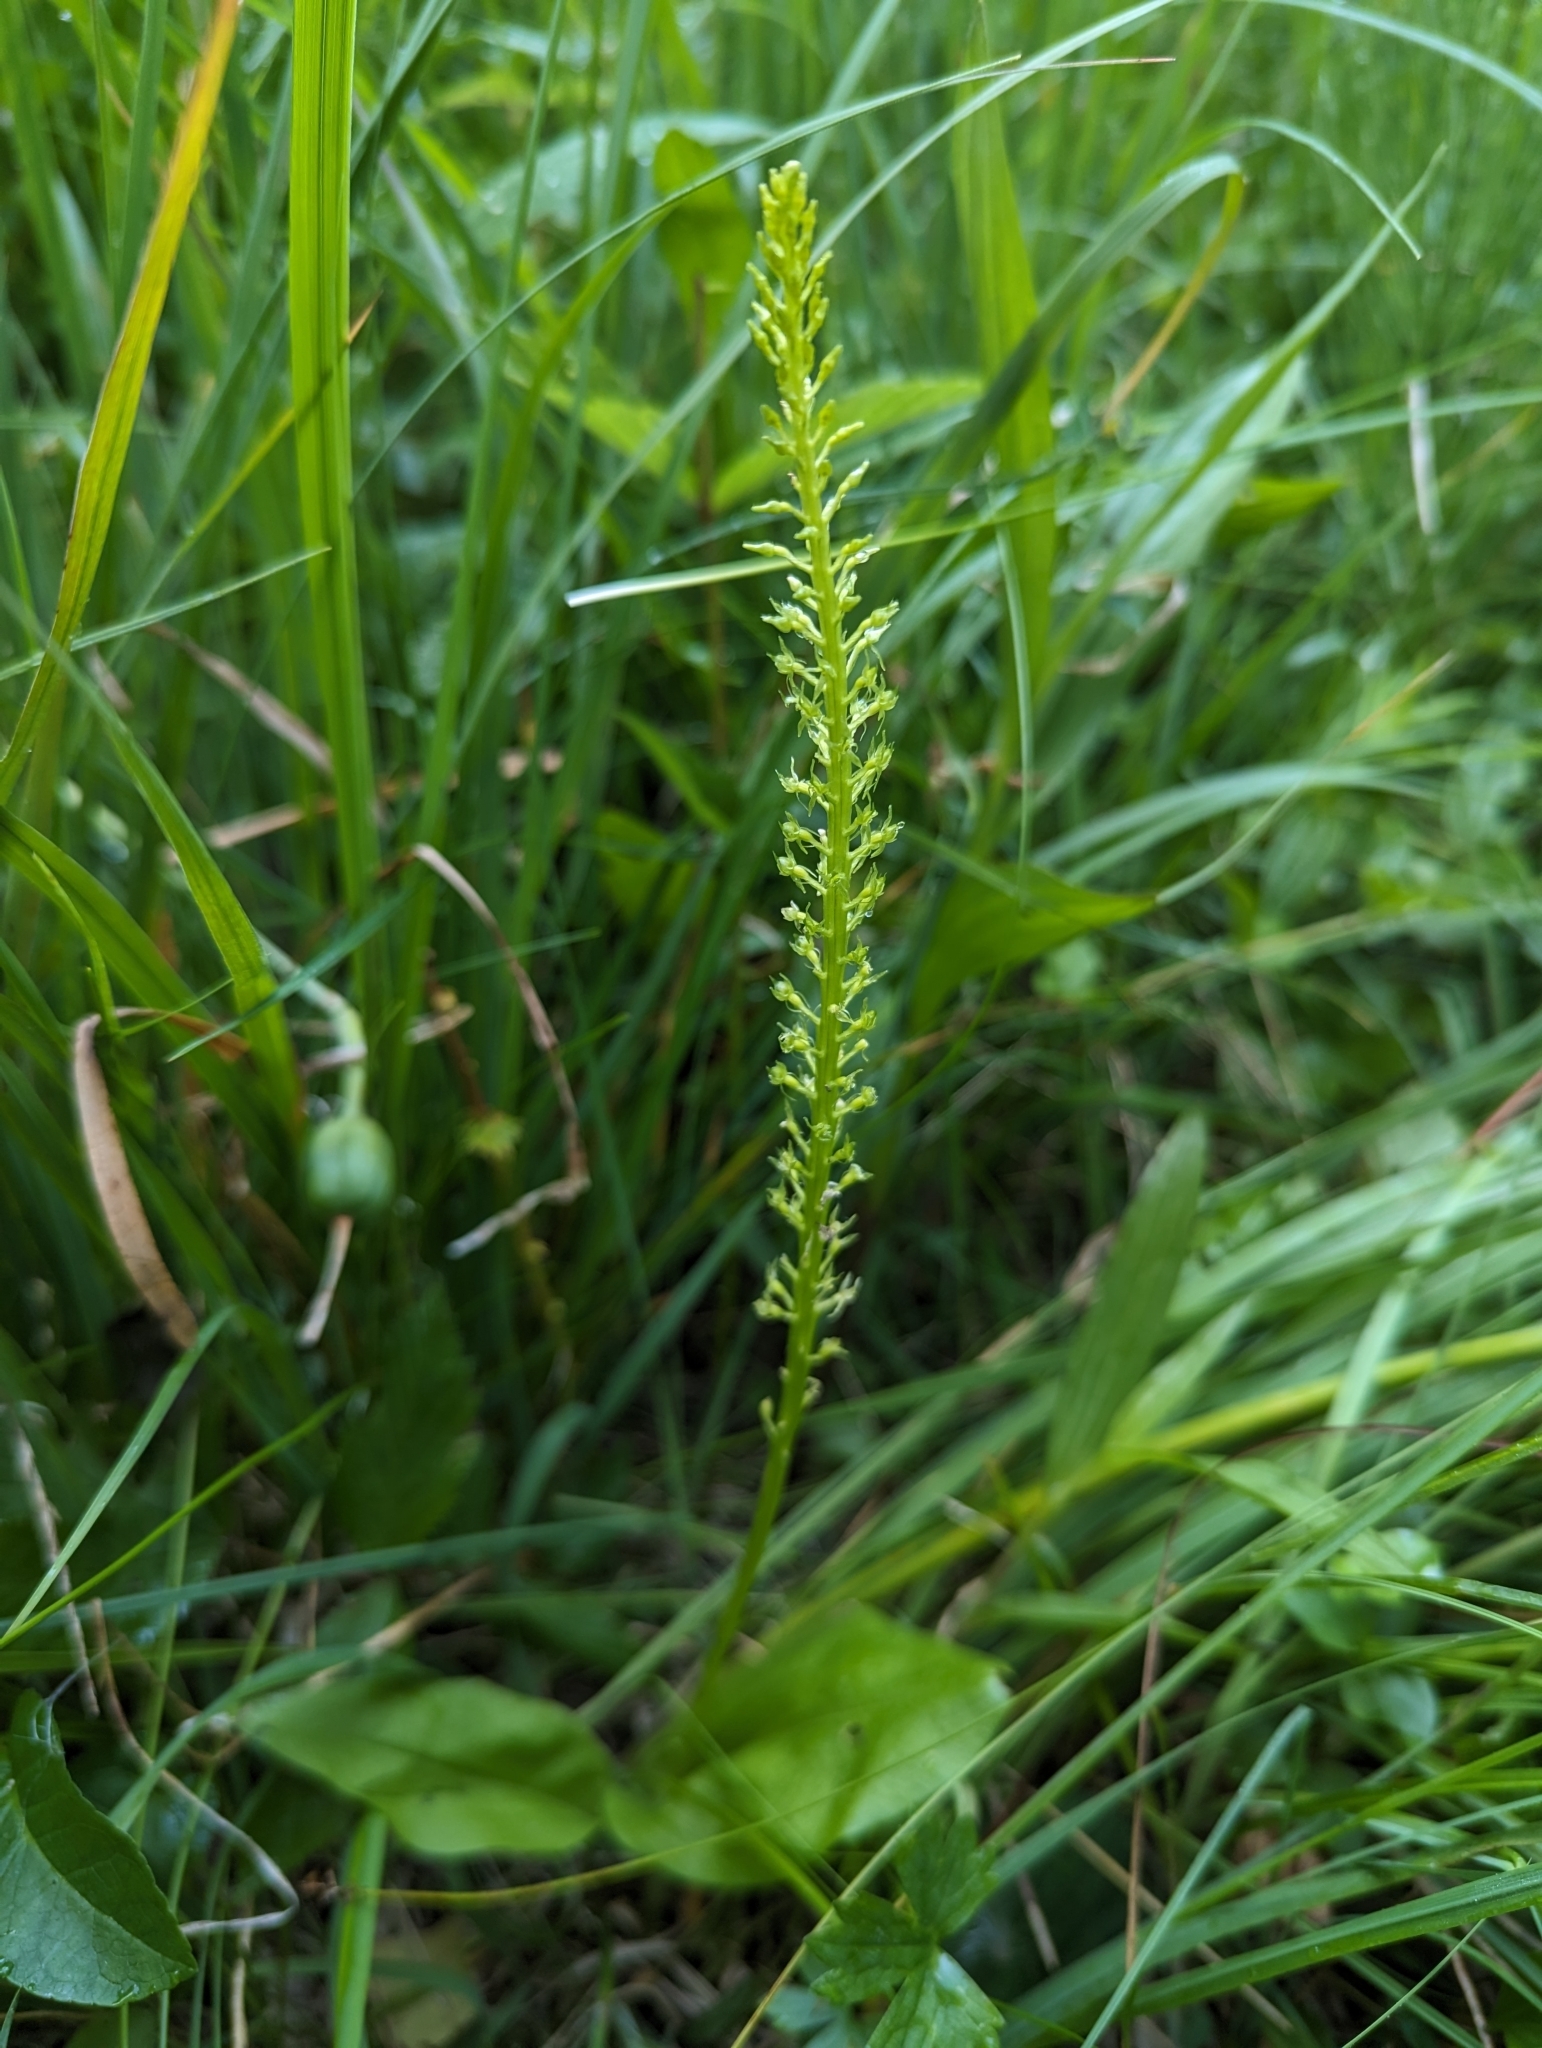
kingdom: Plantae
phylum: Tracheophyta
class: Liliopsida
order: Asparagales
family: Orchidaceae
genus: Malaxis
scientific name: Malaxis monophyllos
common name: White adder's-mouth
